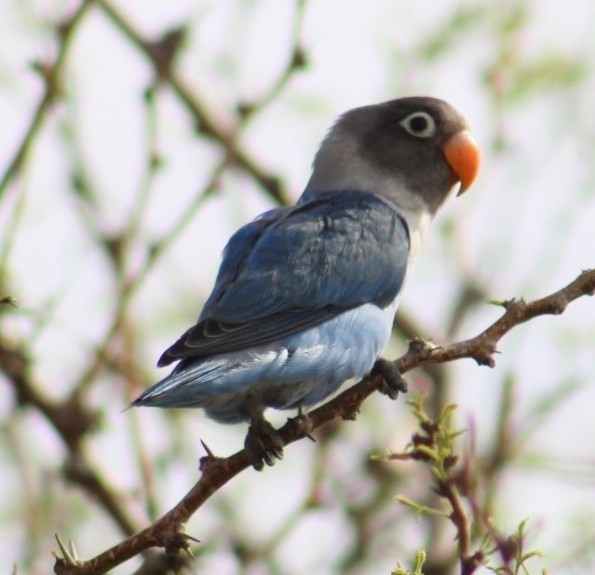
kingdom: Animalia
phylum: Chordata
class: Aves
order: Psittaciformes
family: Psittacidae
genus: Agapornis
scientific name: Agapornis personatus
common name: Yellow-collared lovebird
